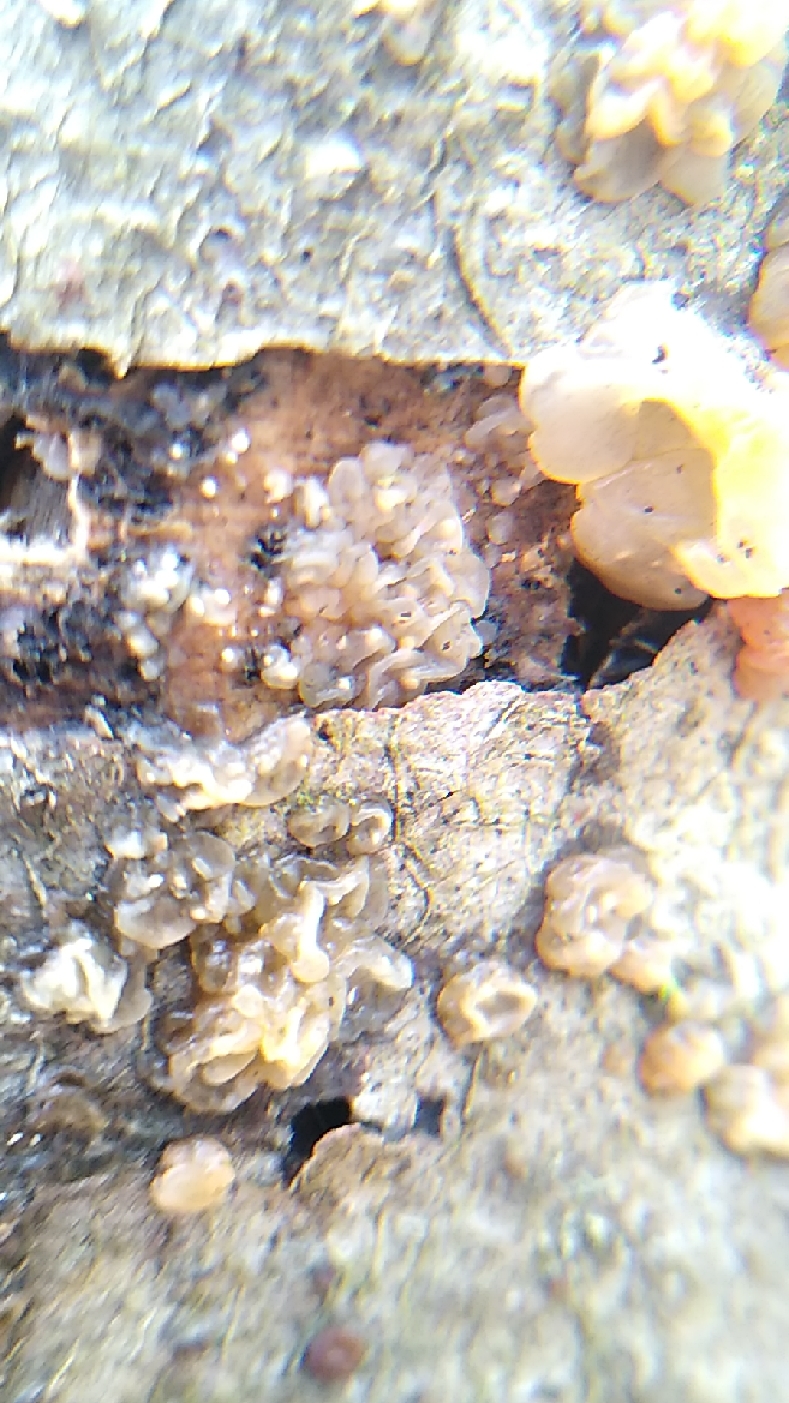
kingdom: Fungi
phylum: Basidiomycota
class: Agaricomycetes
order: Auriculariales
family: Hyaloriaceae
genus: Myxarium
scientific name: Myxarium nucleatum
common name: Crystal brain fungus
